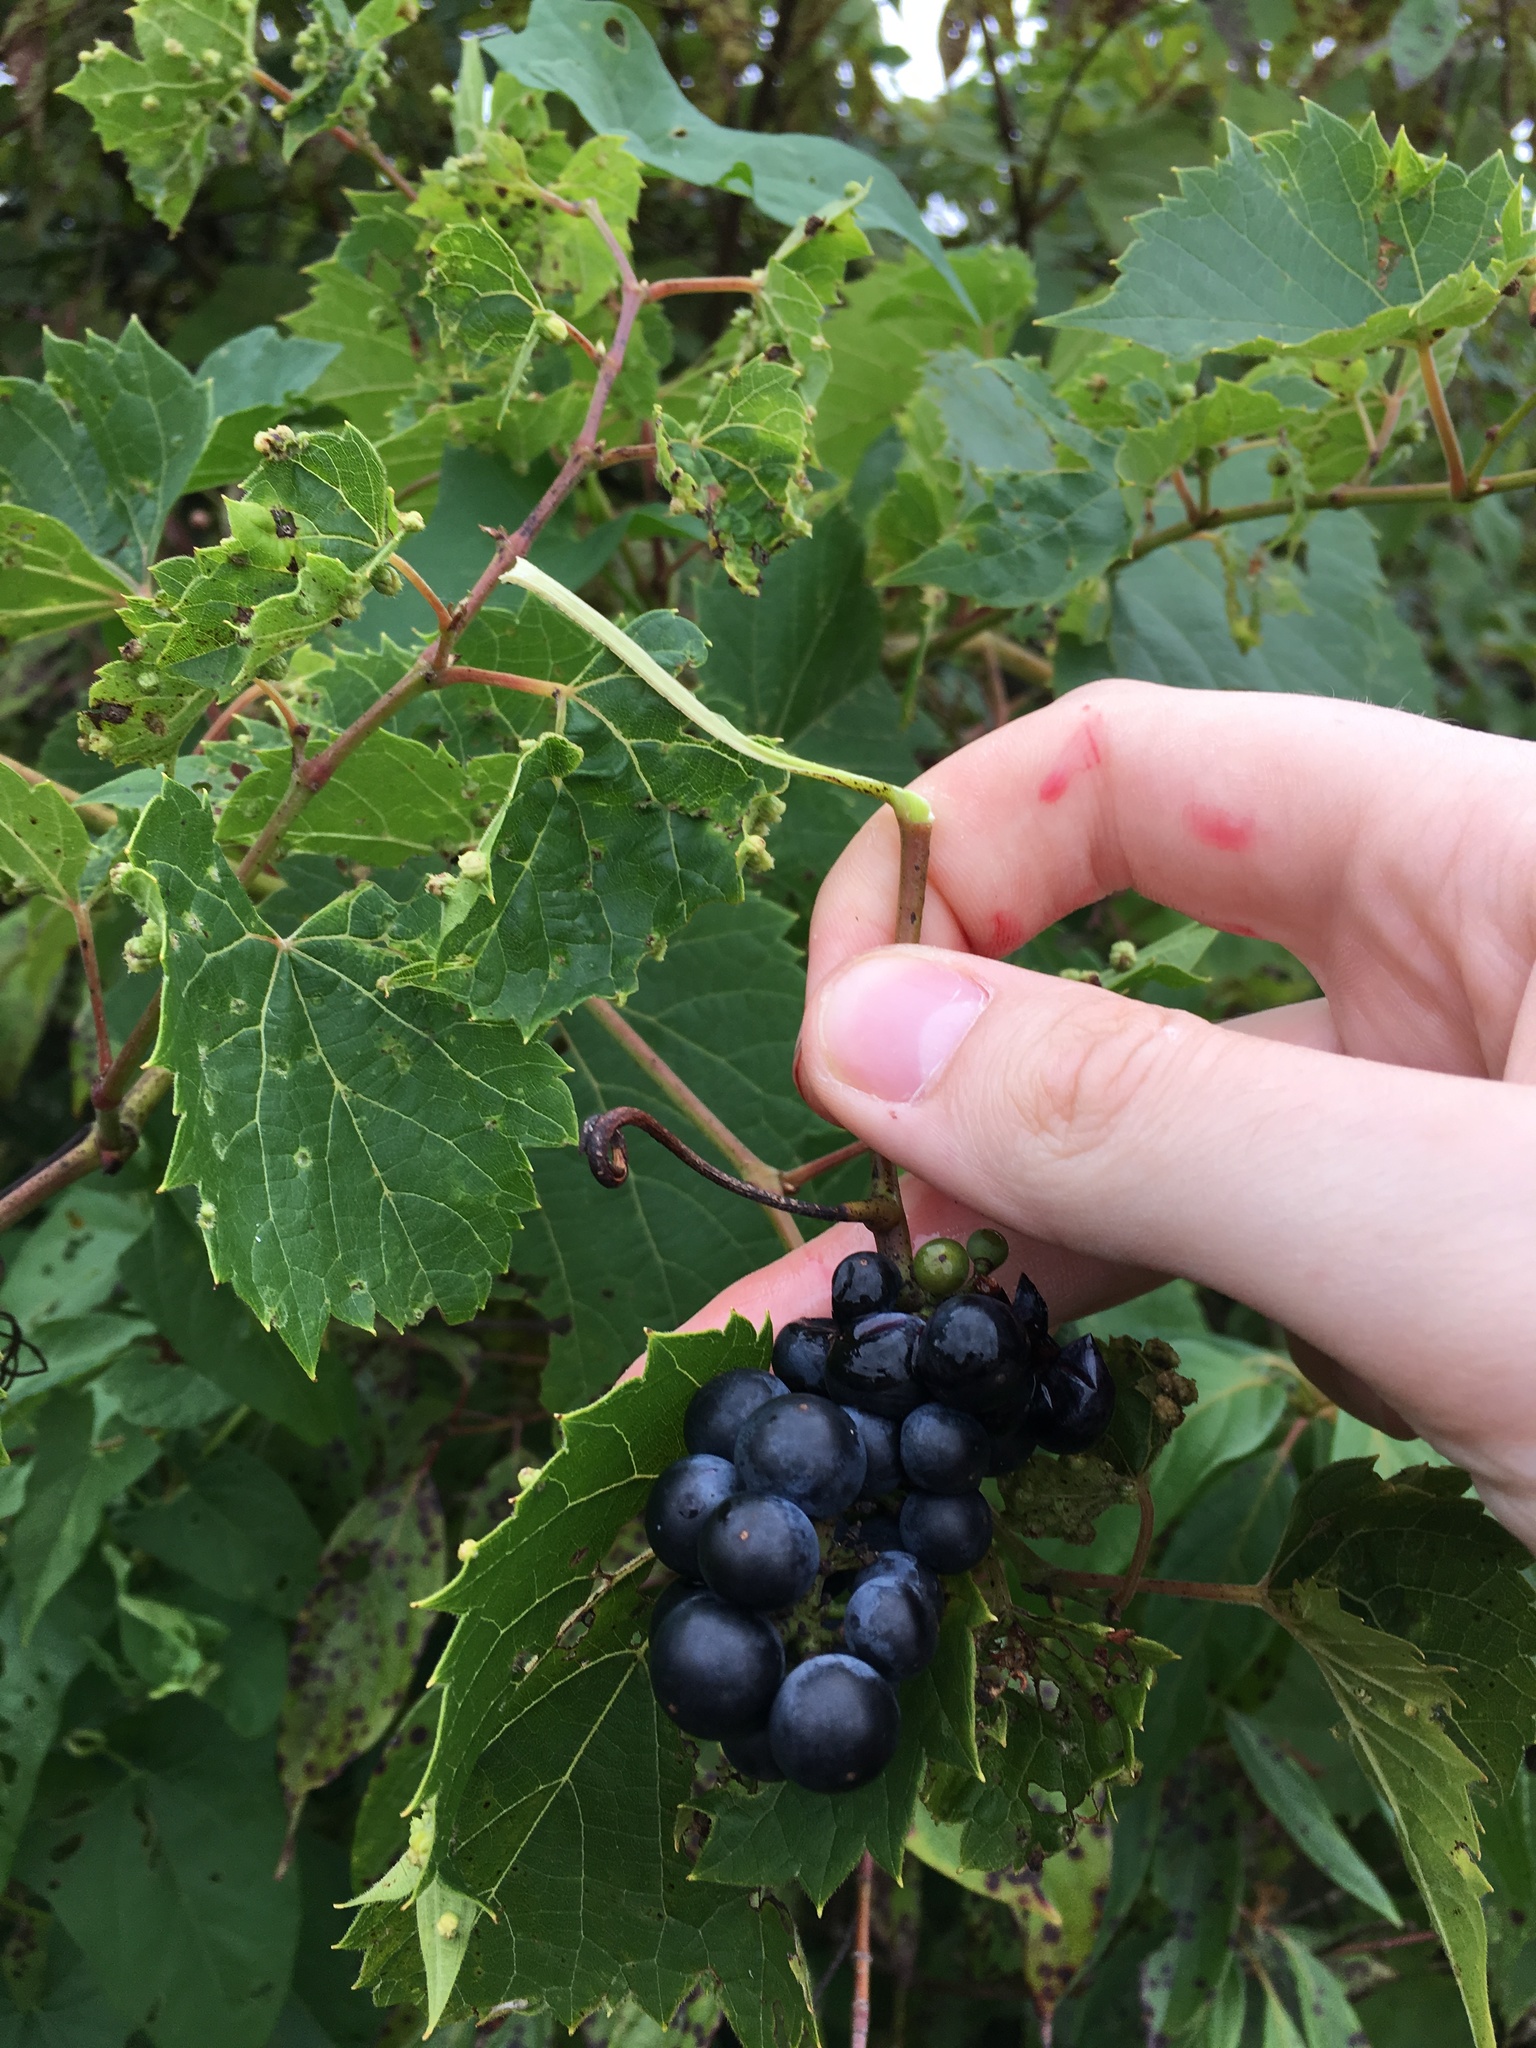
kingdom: Animalia
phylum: Arthropoda
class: Insecta
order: Hemiptera
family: Phylloxeridae
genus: Daktulosphaira
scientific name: Daktulosphaira vitifoliae
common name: Grape phylloxera
